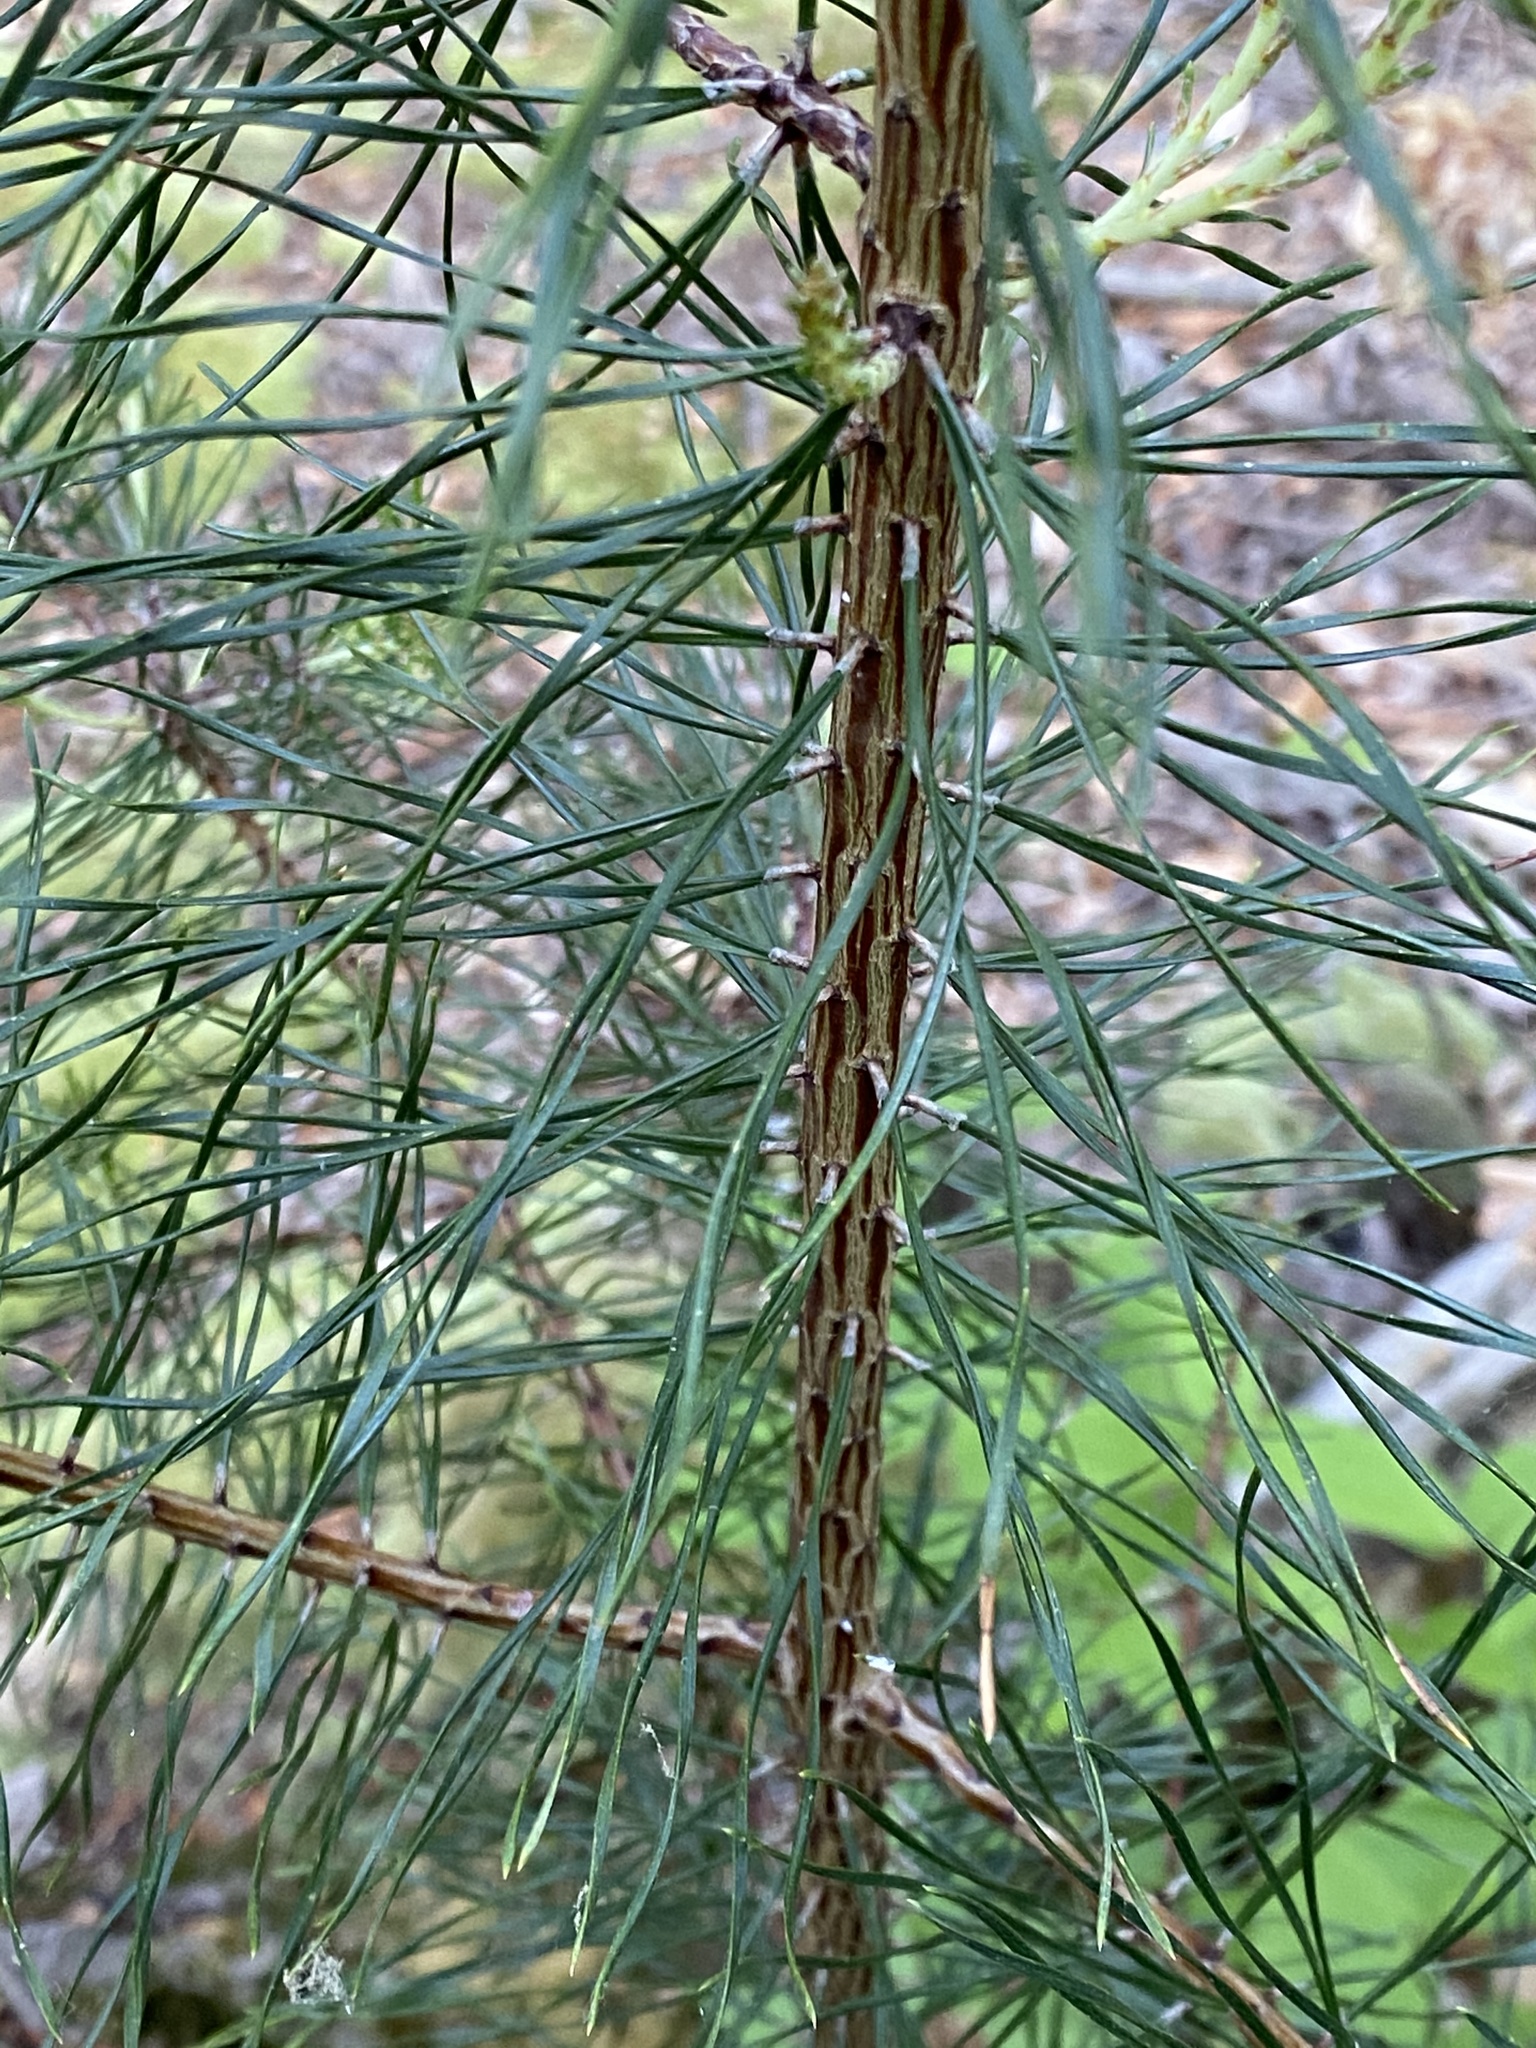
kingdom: Plantae
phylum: Tracheophyta
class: Pinopsida
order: Pinales
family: Pinaceae
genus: Pinus
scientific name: Pinus virginiana
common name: Scrub pine
